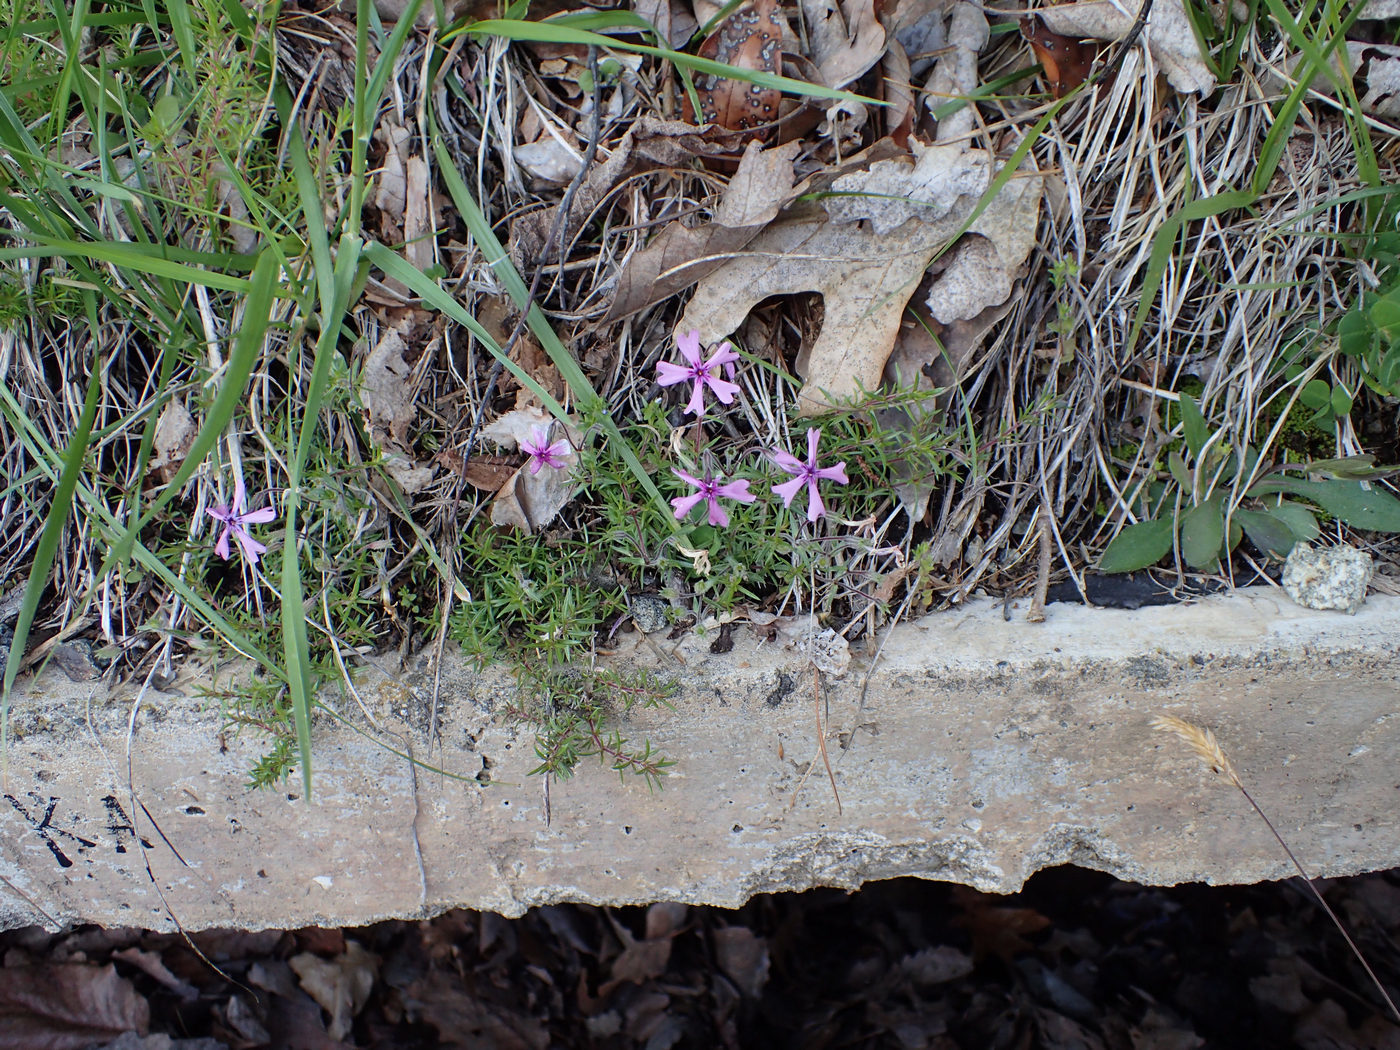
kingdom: Plantae
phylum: Tracheophyta
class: Magnoliopsida
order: Ericales
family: Polemoniaceae
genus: Phlox
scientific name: Phlox subulata
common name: Moss phlox
